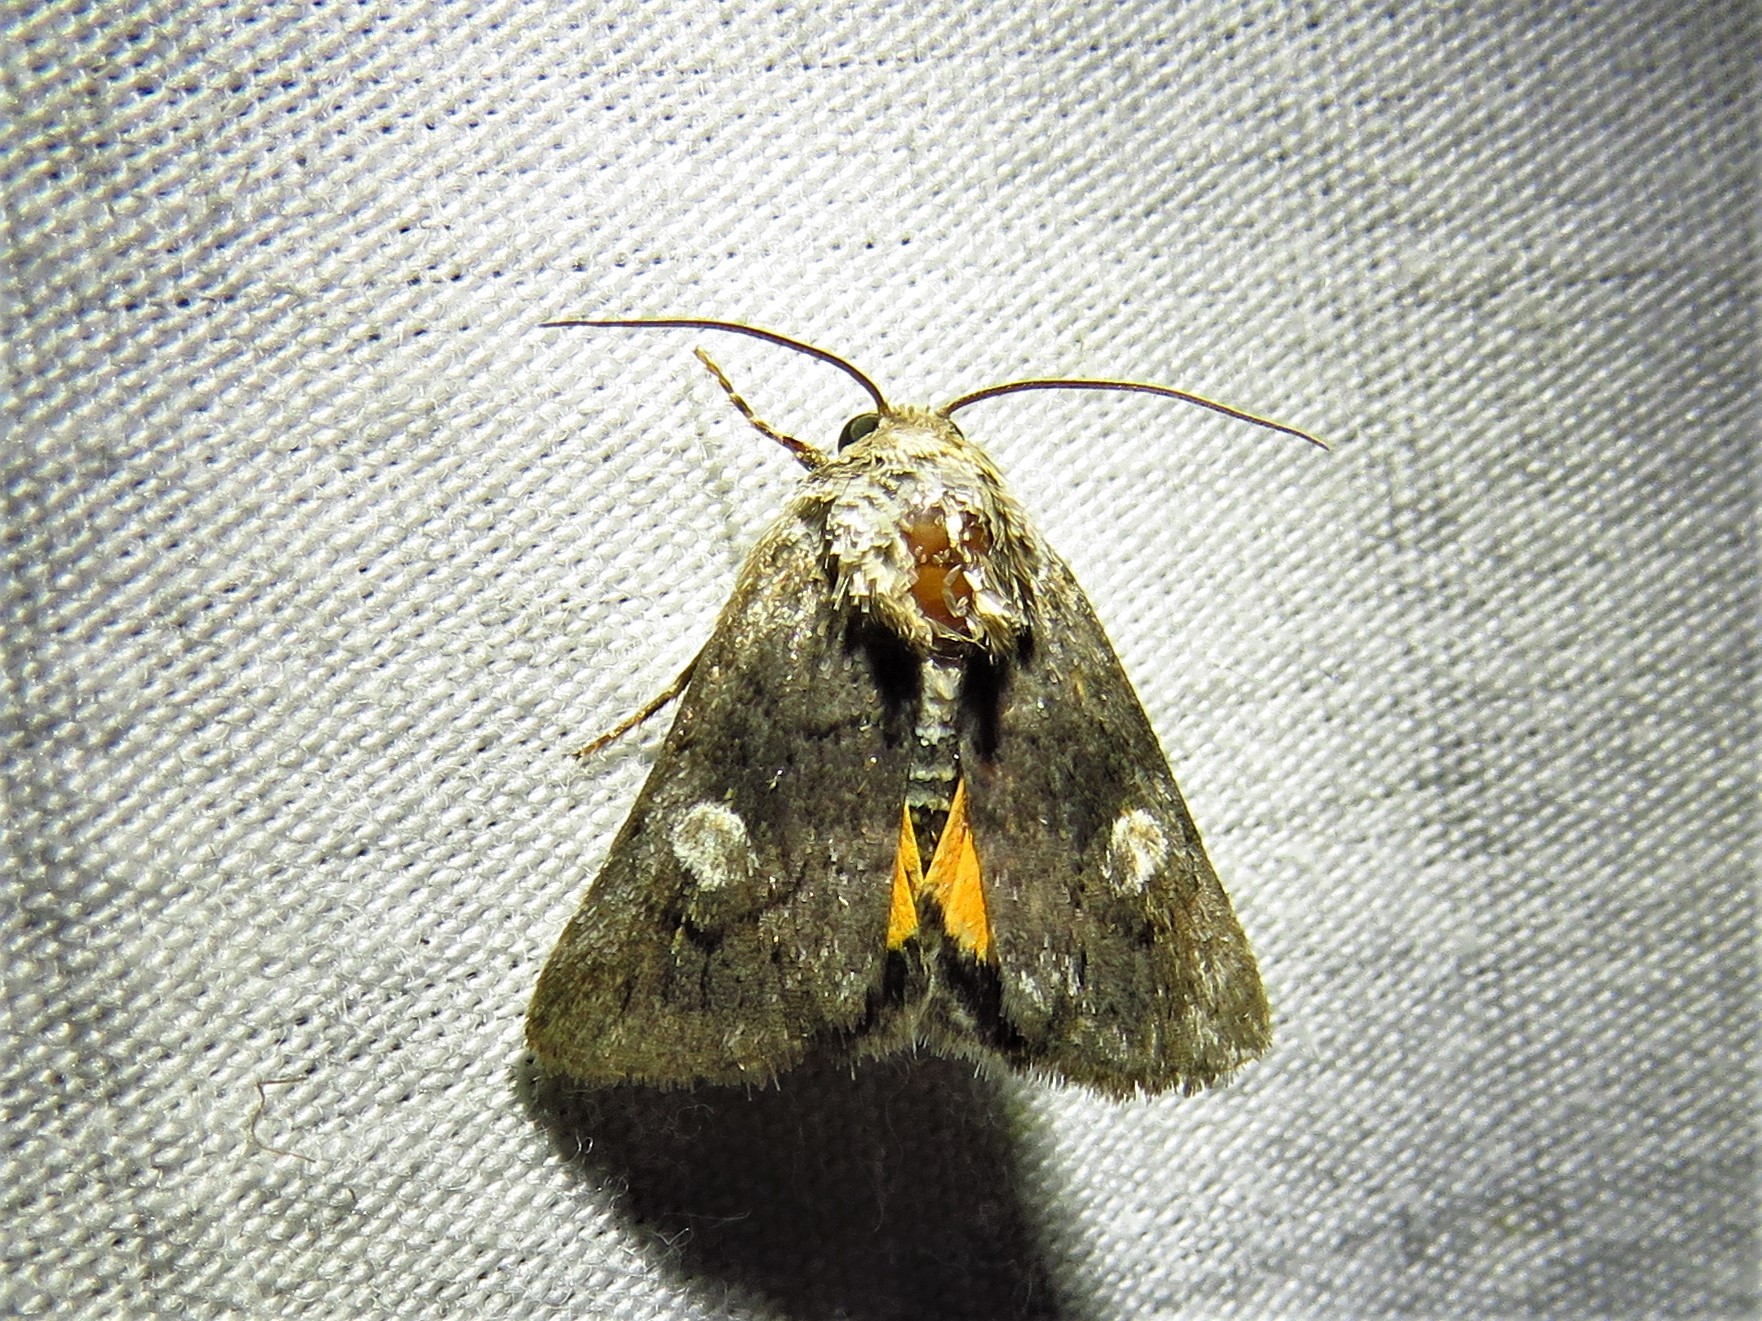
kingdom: Animalia
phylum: Arthropoda
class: Insecta
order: Lepidoptera
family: Noctuidae
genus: Copanarta
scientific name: Copanarta aurea
